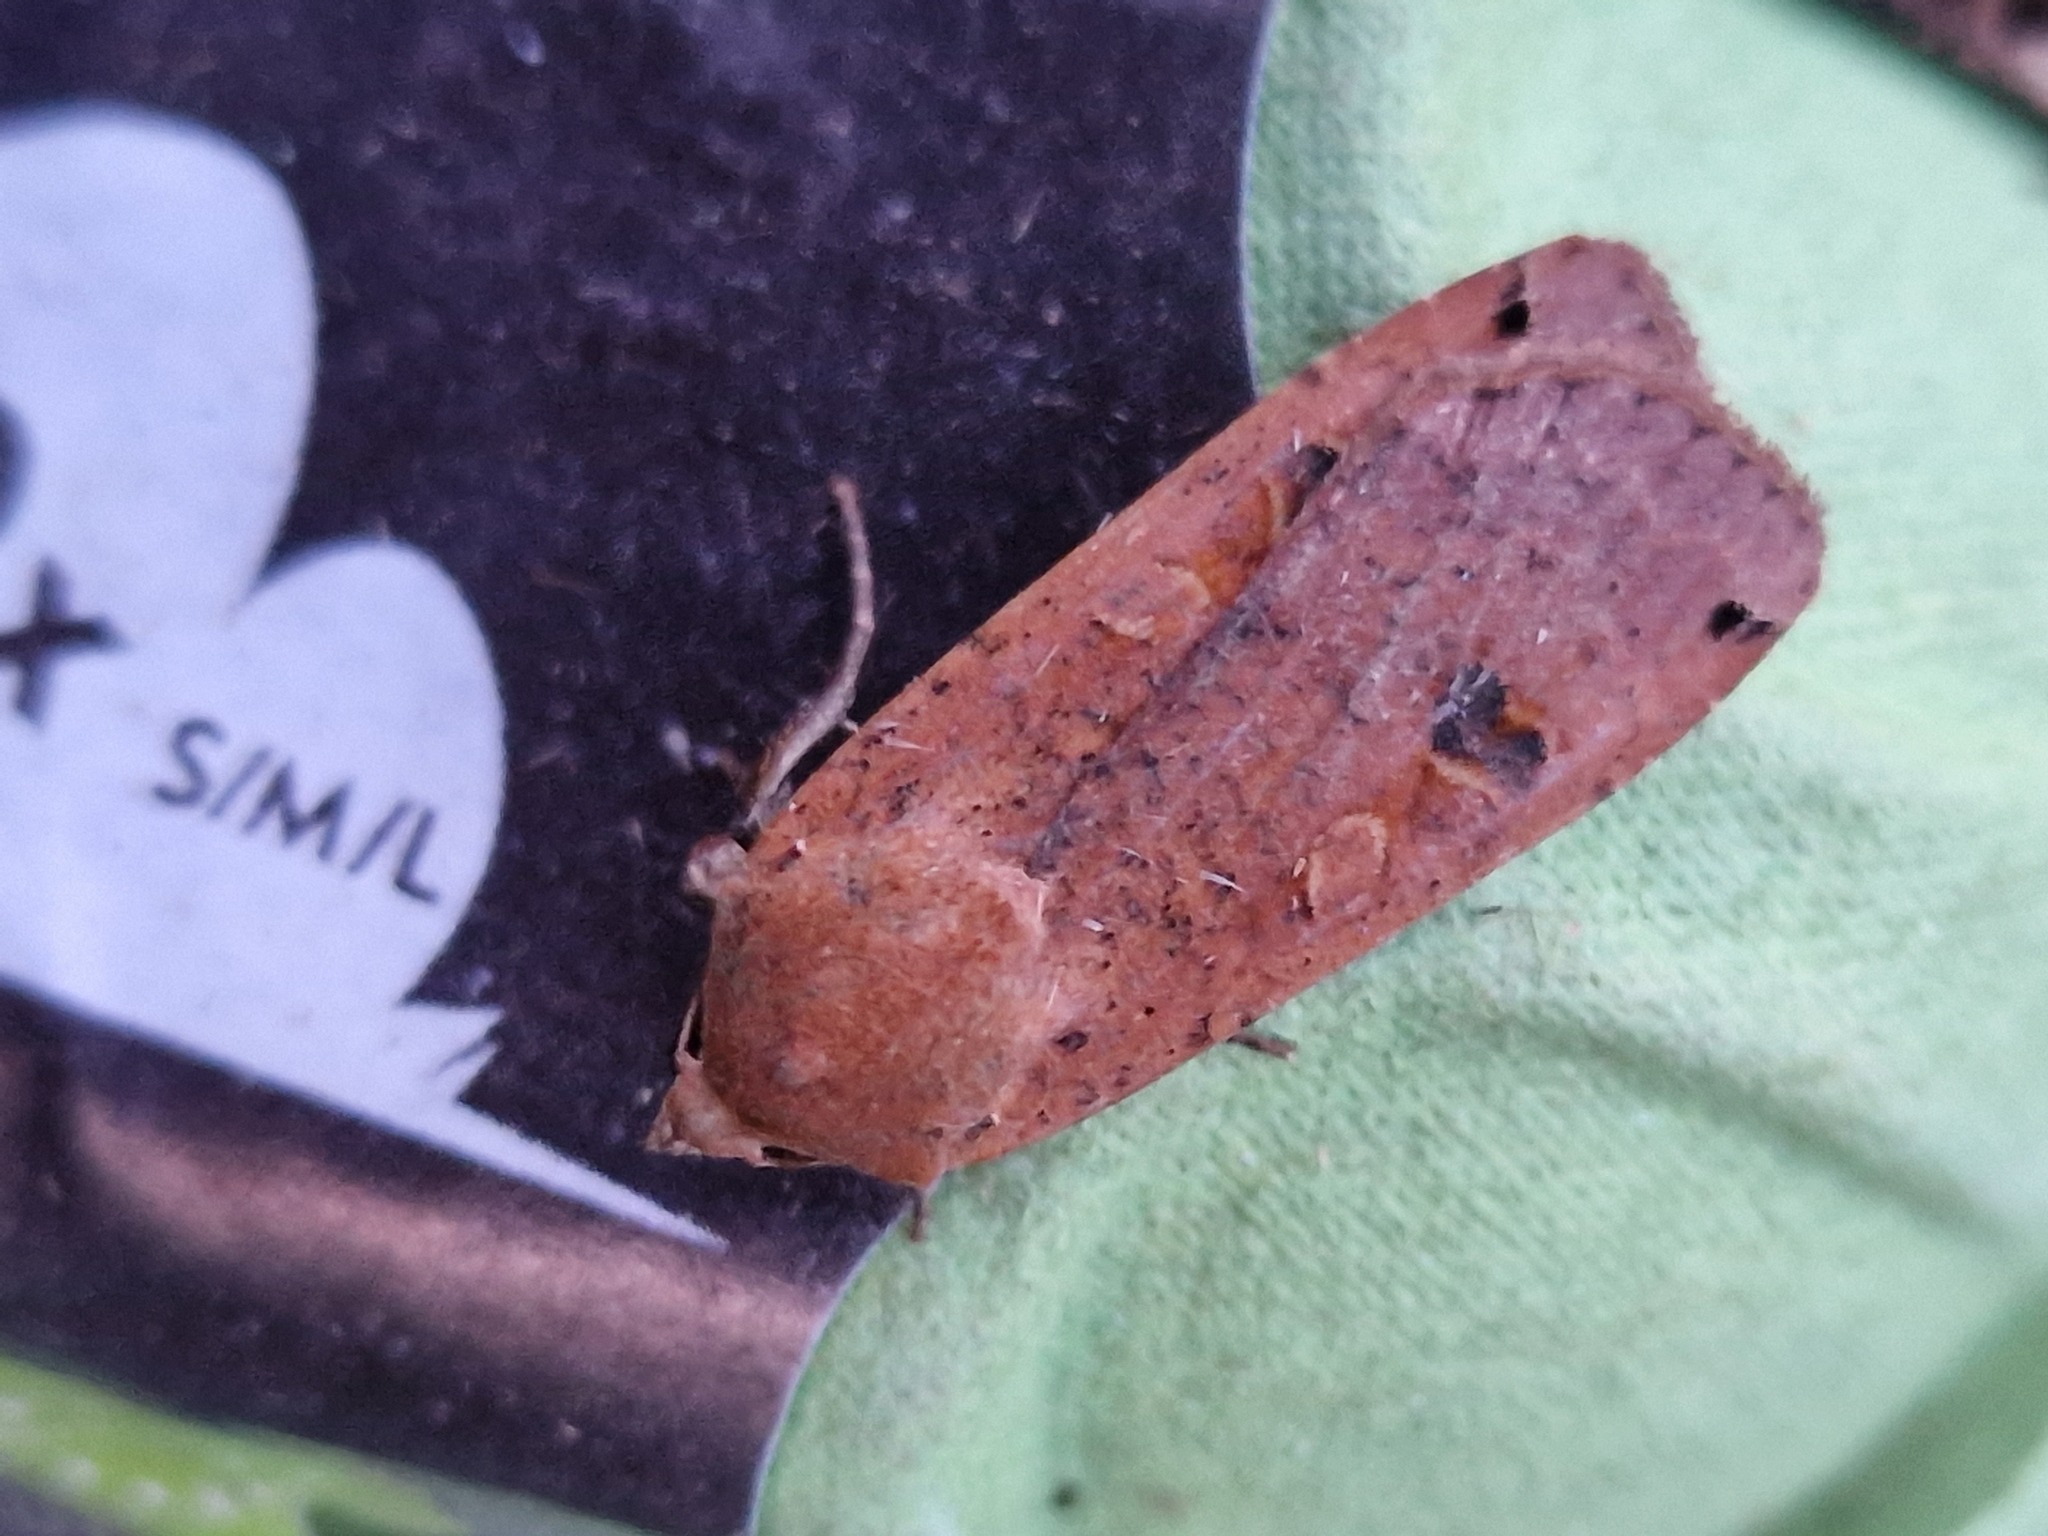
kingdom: Animalia
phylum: Arthropoda
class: Insecta
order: Lepidoptera
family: Noctuidae
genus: Noctua
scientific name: Noctua pronuba
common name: Large yellow underwing
